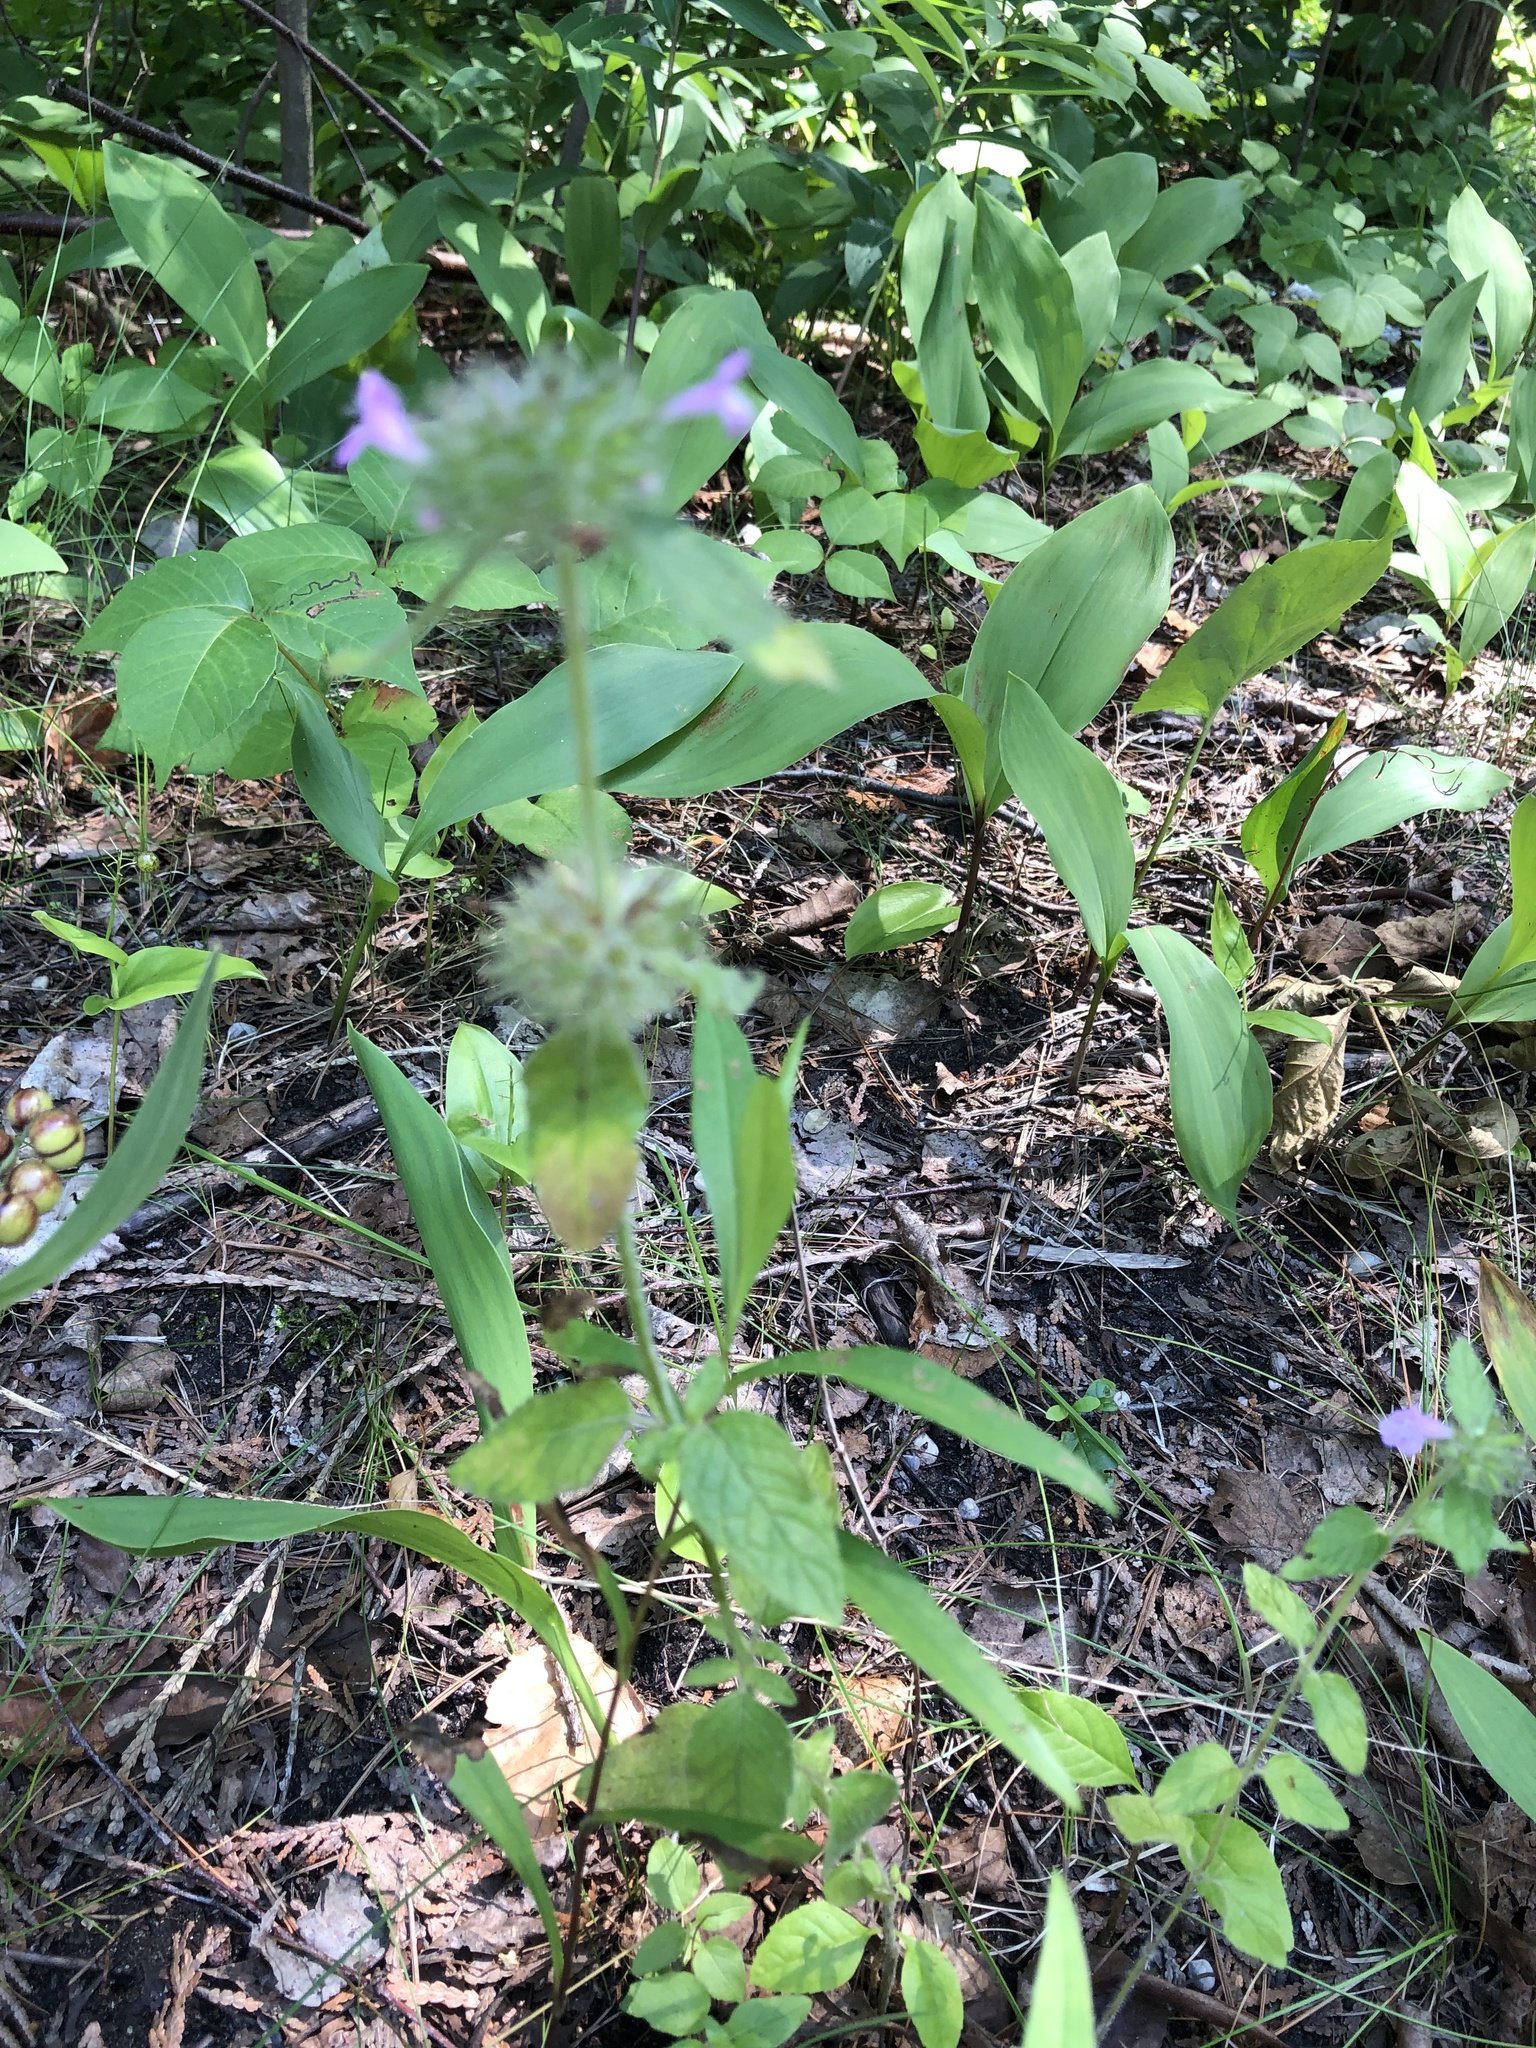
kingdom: Plantae
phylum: Tracheophyta
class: Magnoliopsida
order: Lamiales
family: Lamiaceae
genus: Clinopodium
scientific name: Clinopodium vulgare
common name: Wild basil
